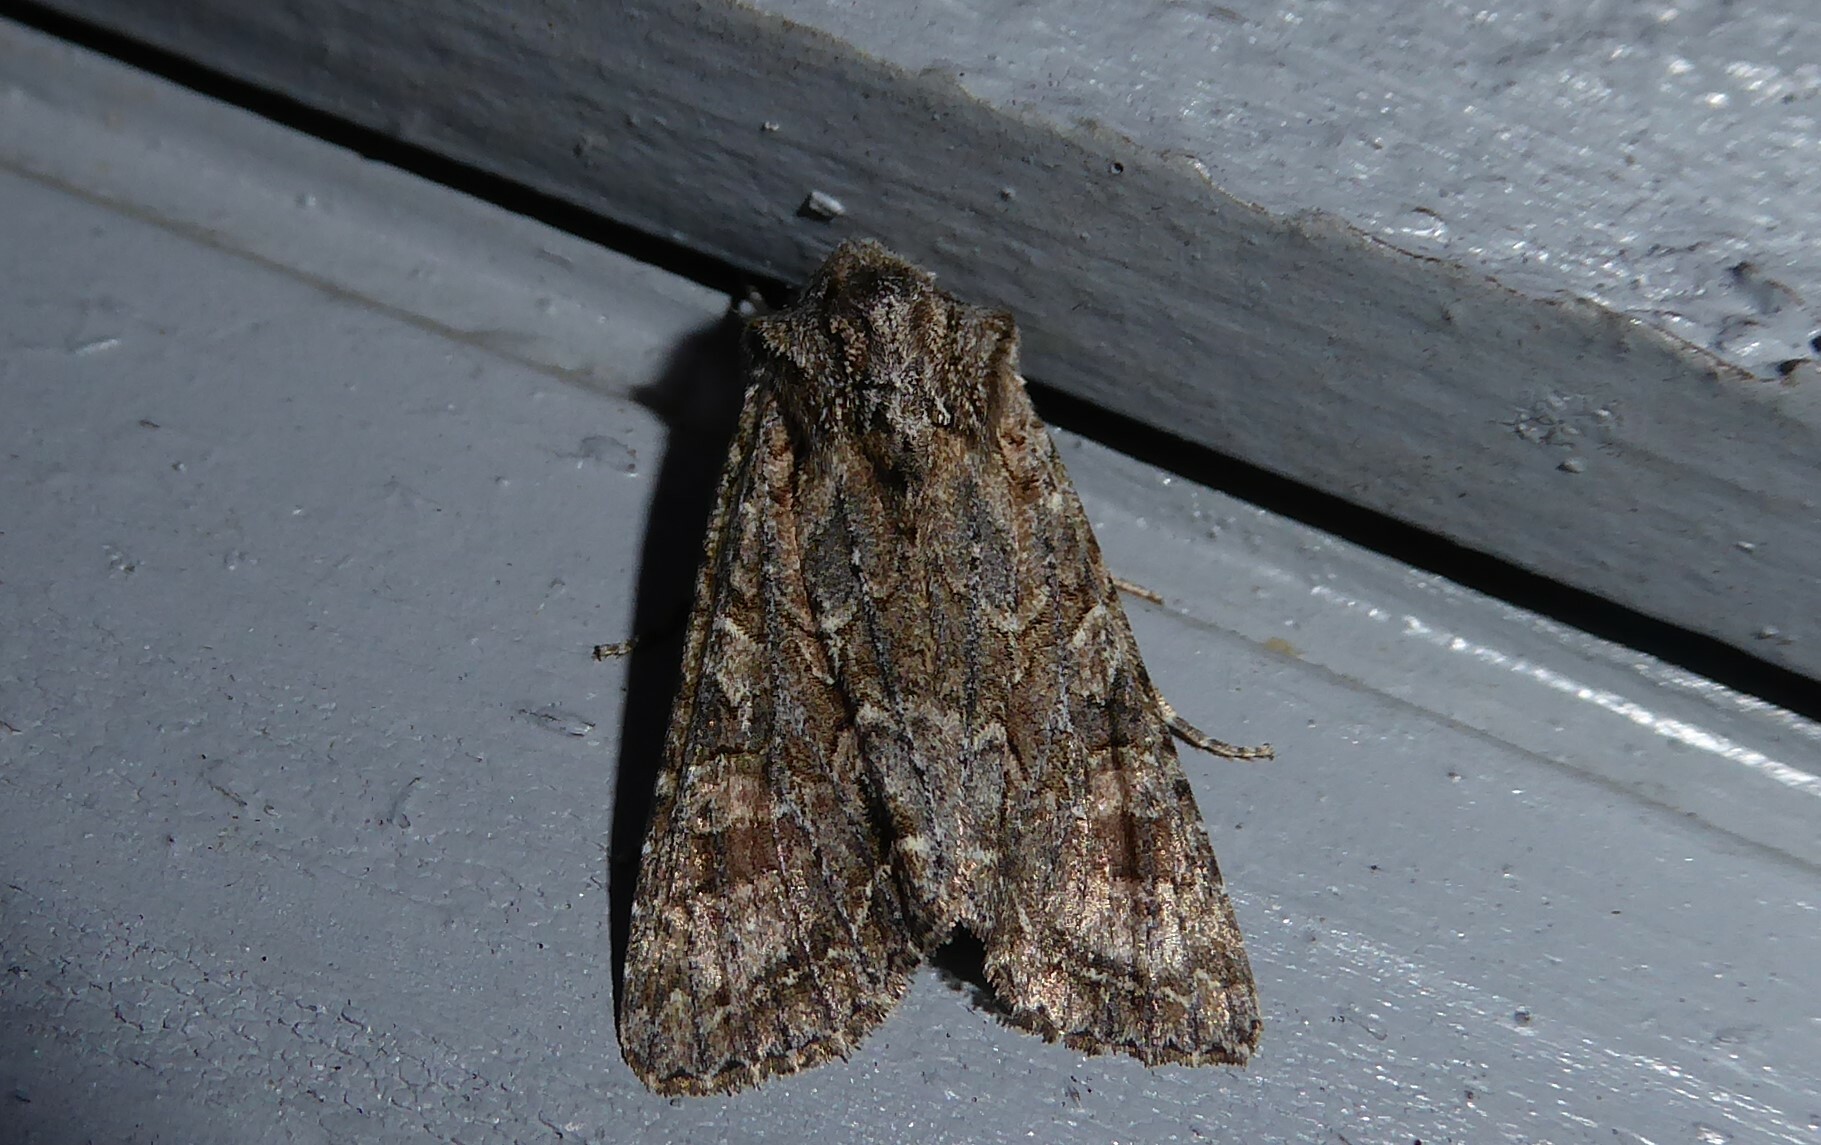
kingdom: Animalia
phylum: Arthropoda
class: Insecta
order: Lepidoptera
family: Noctuidae
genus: Ichneutica
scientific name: Ichneutica mutans
